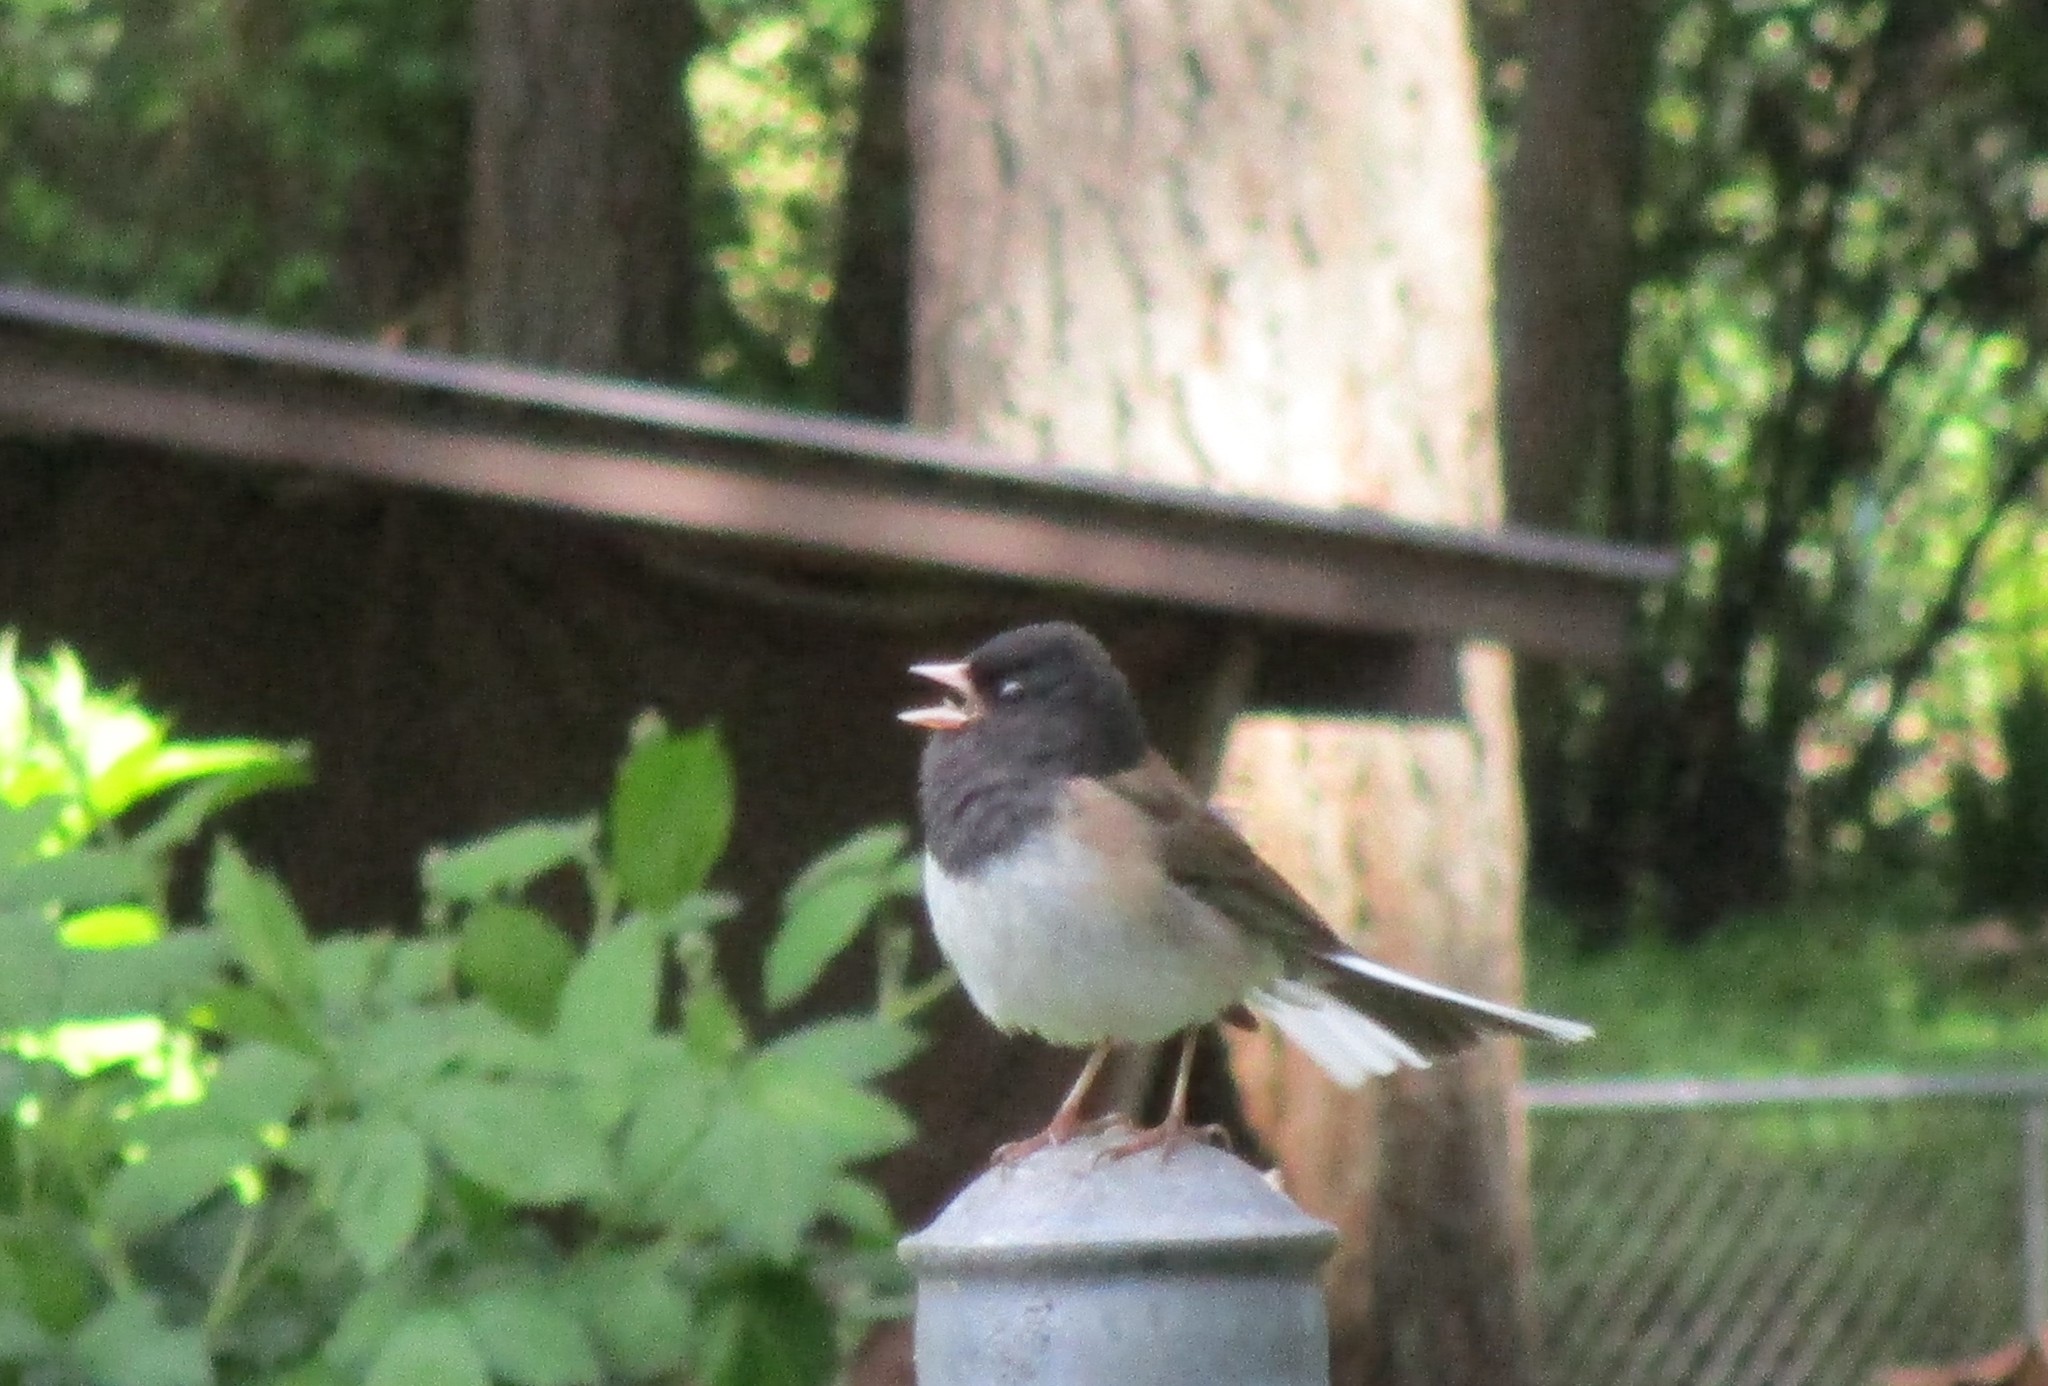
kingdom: Animalia
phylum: Chordata
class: Aves
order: Passeriformes
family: Passerellidae
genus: Junco
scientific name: Junco hyemalis
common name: Dark-eyed junco
